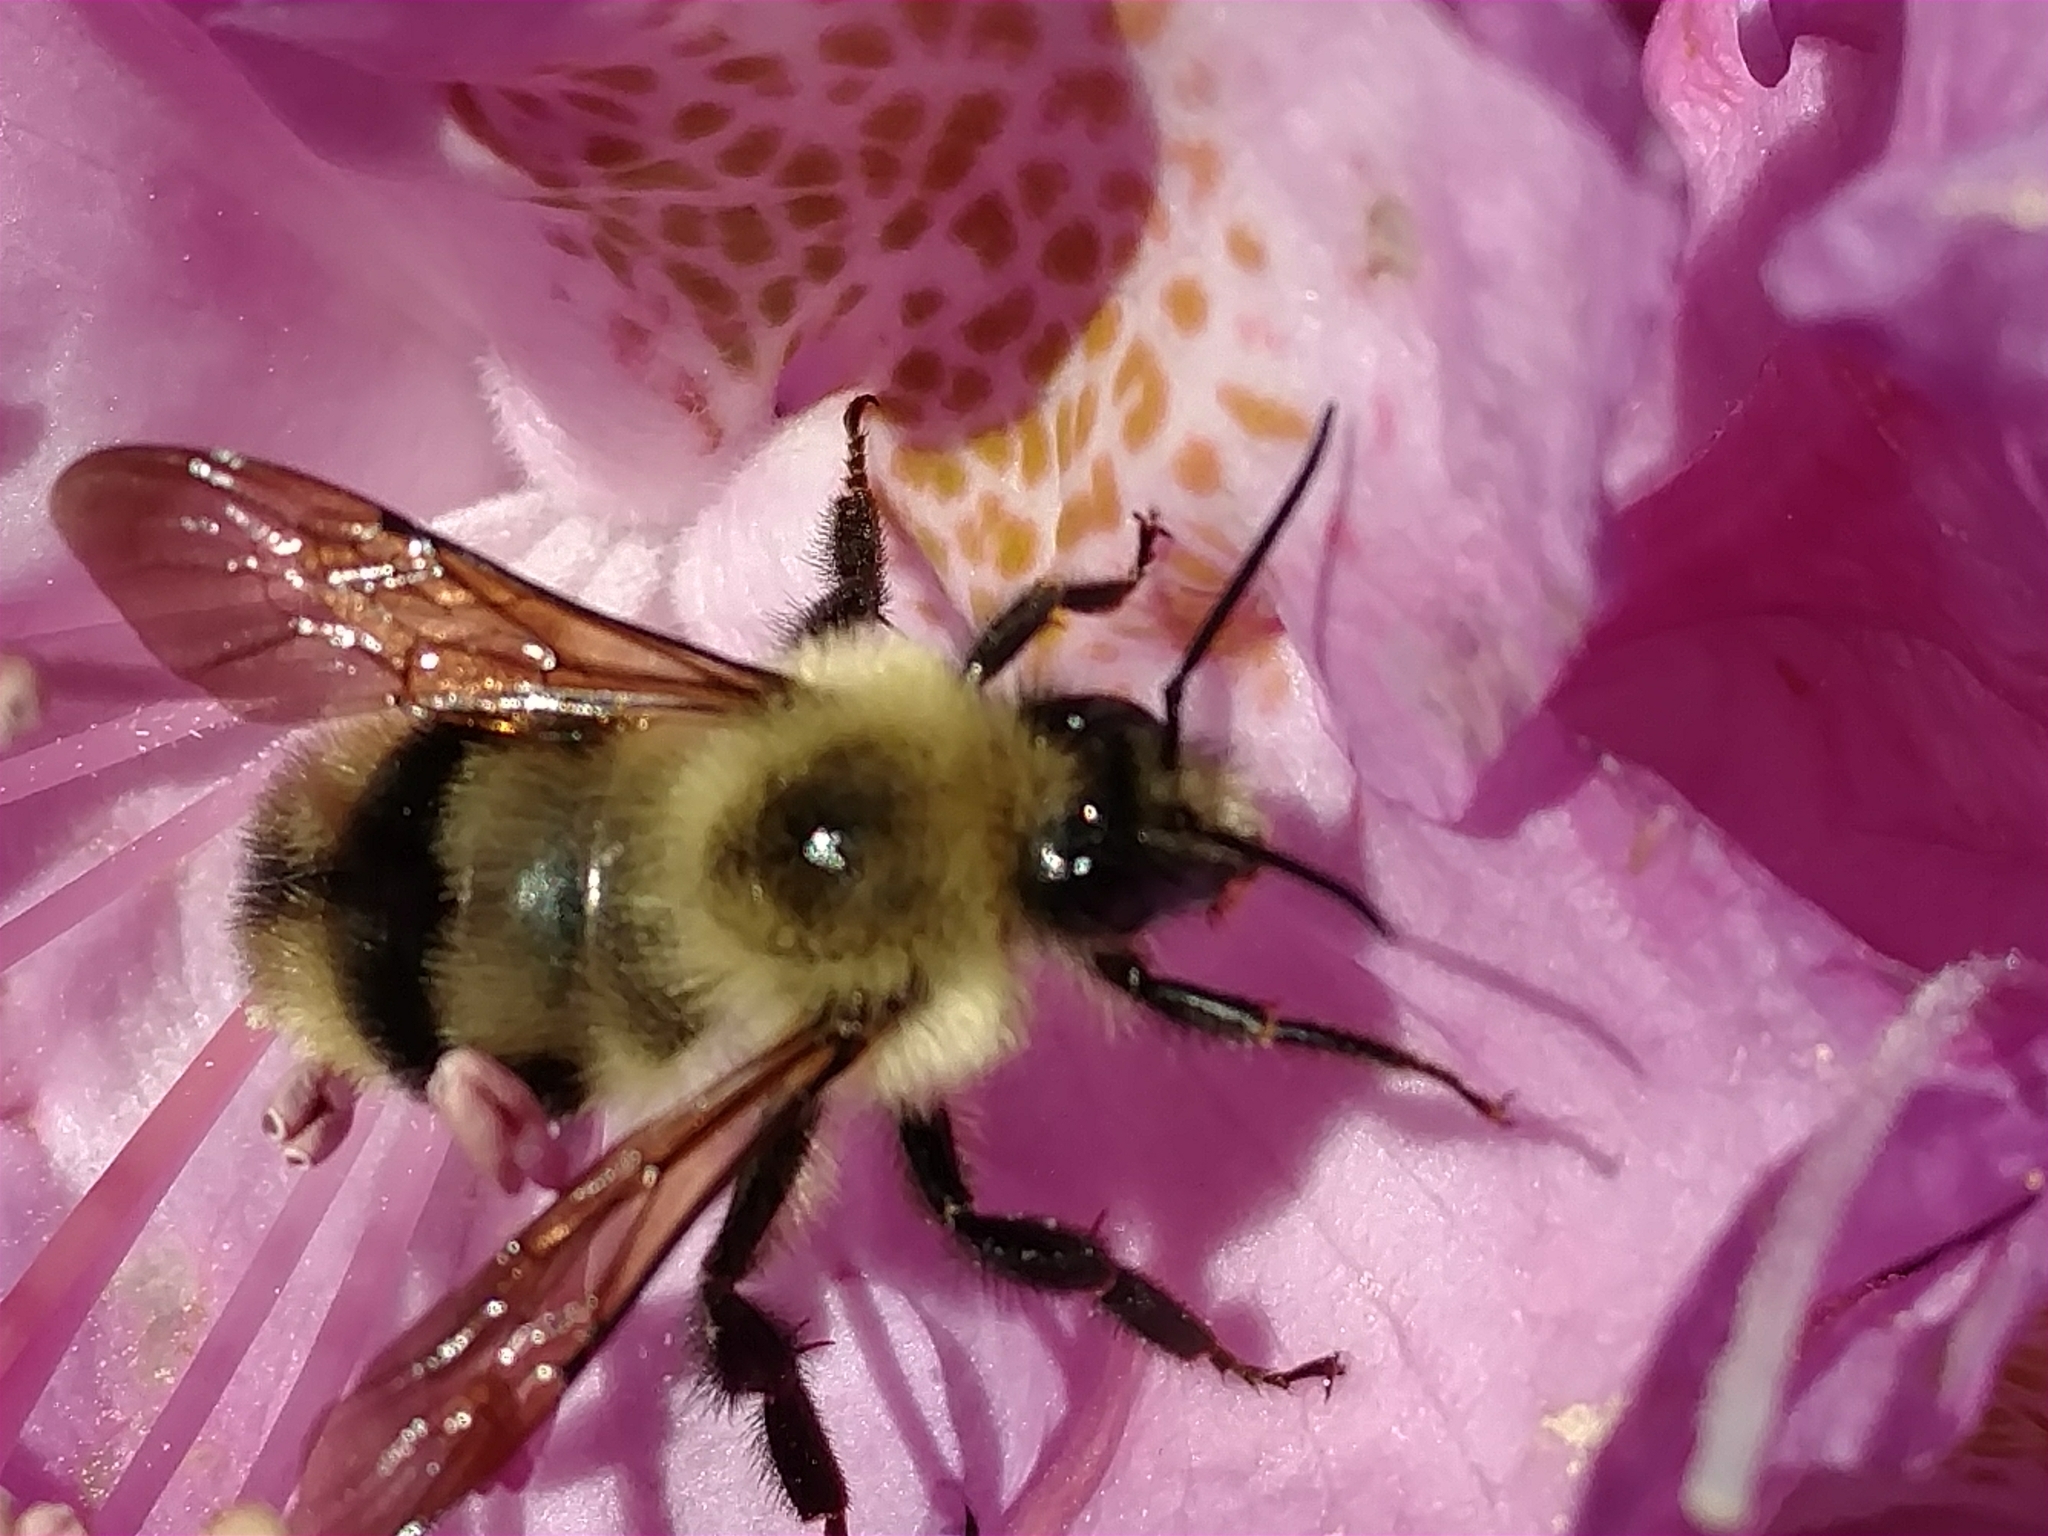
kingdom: Animalia
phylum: Arthropoda
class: Insecta
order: Hymenoptera
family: Apidae
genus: Bombus
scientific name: Bombus bimaculatus
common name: Two-spotted bumble bee
